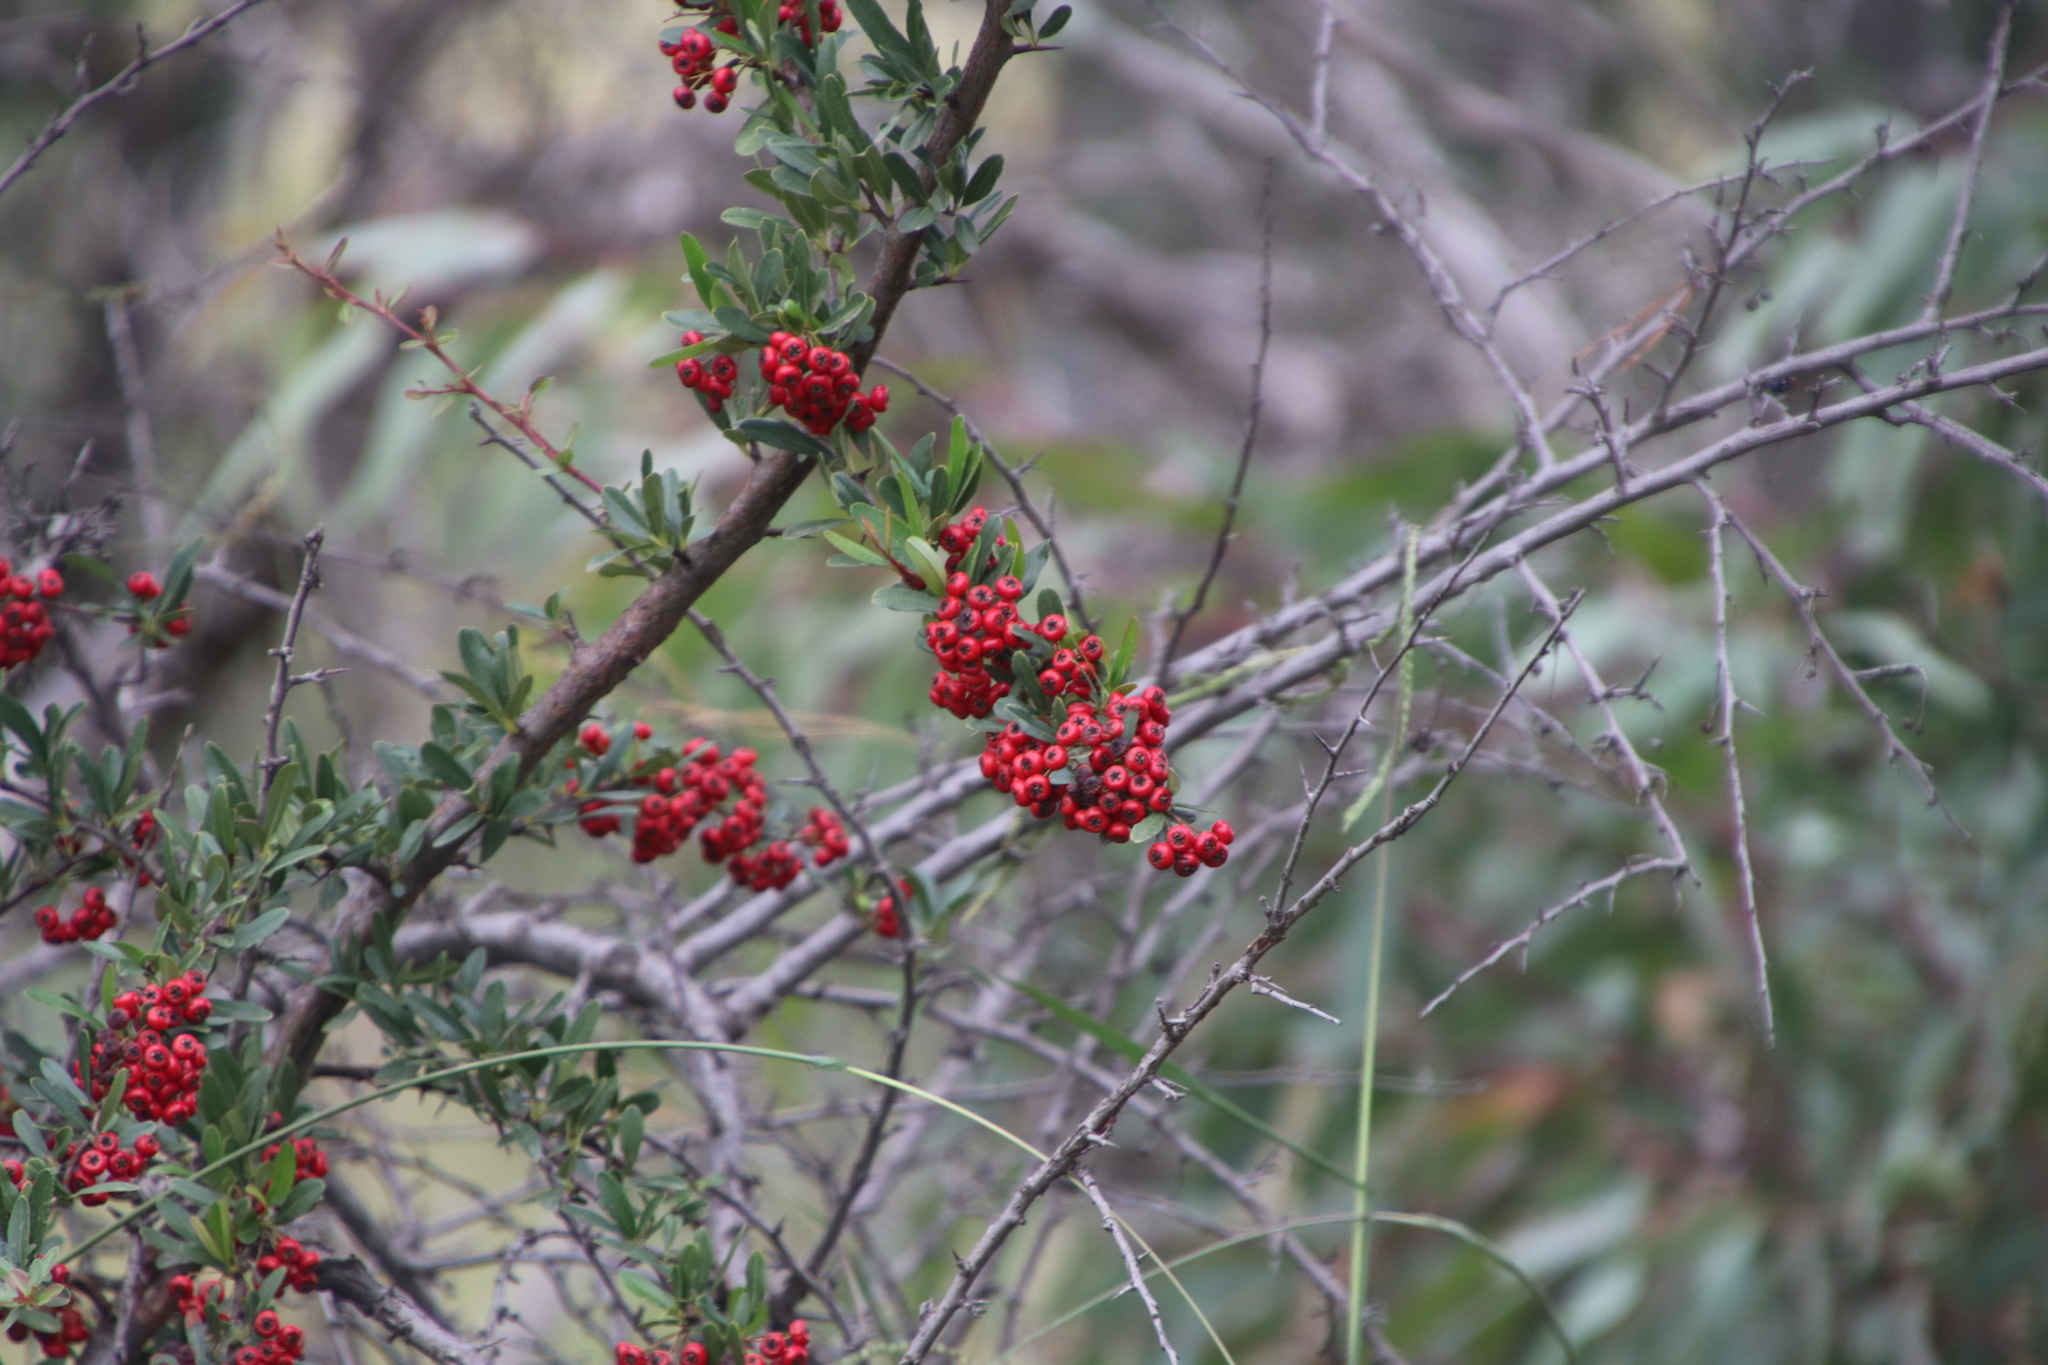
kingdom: Plantae
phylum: Tracheophyta
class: Magnoliopsida
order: Rosales
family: Rosaceae
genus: Pyracantha
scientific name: Pyracantha crenulata
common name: Nepalese firethorn
